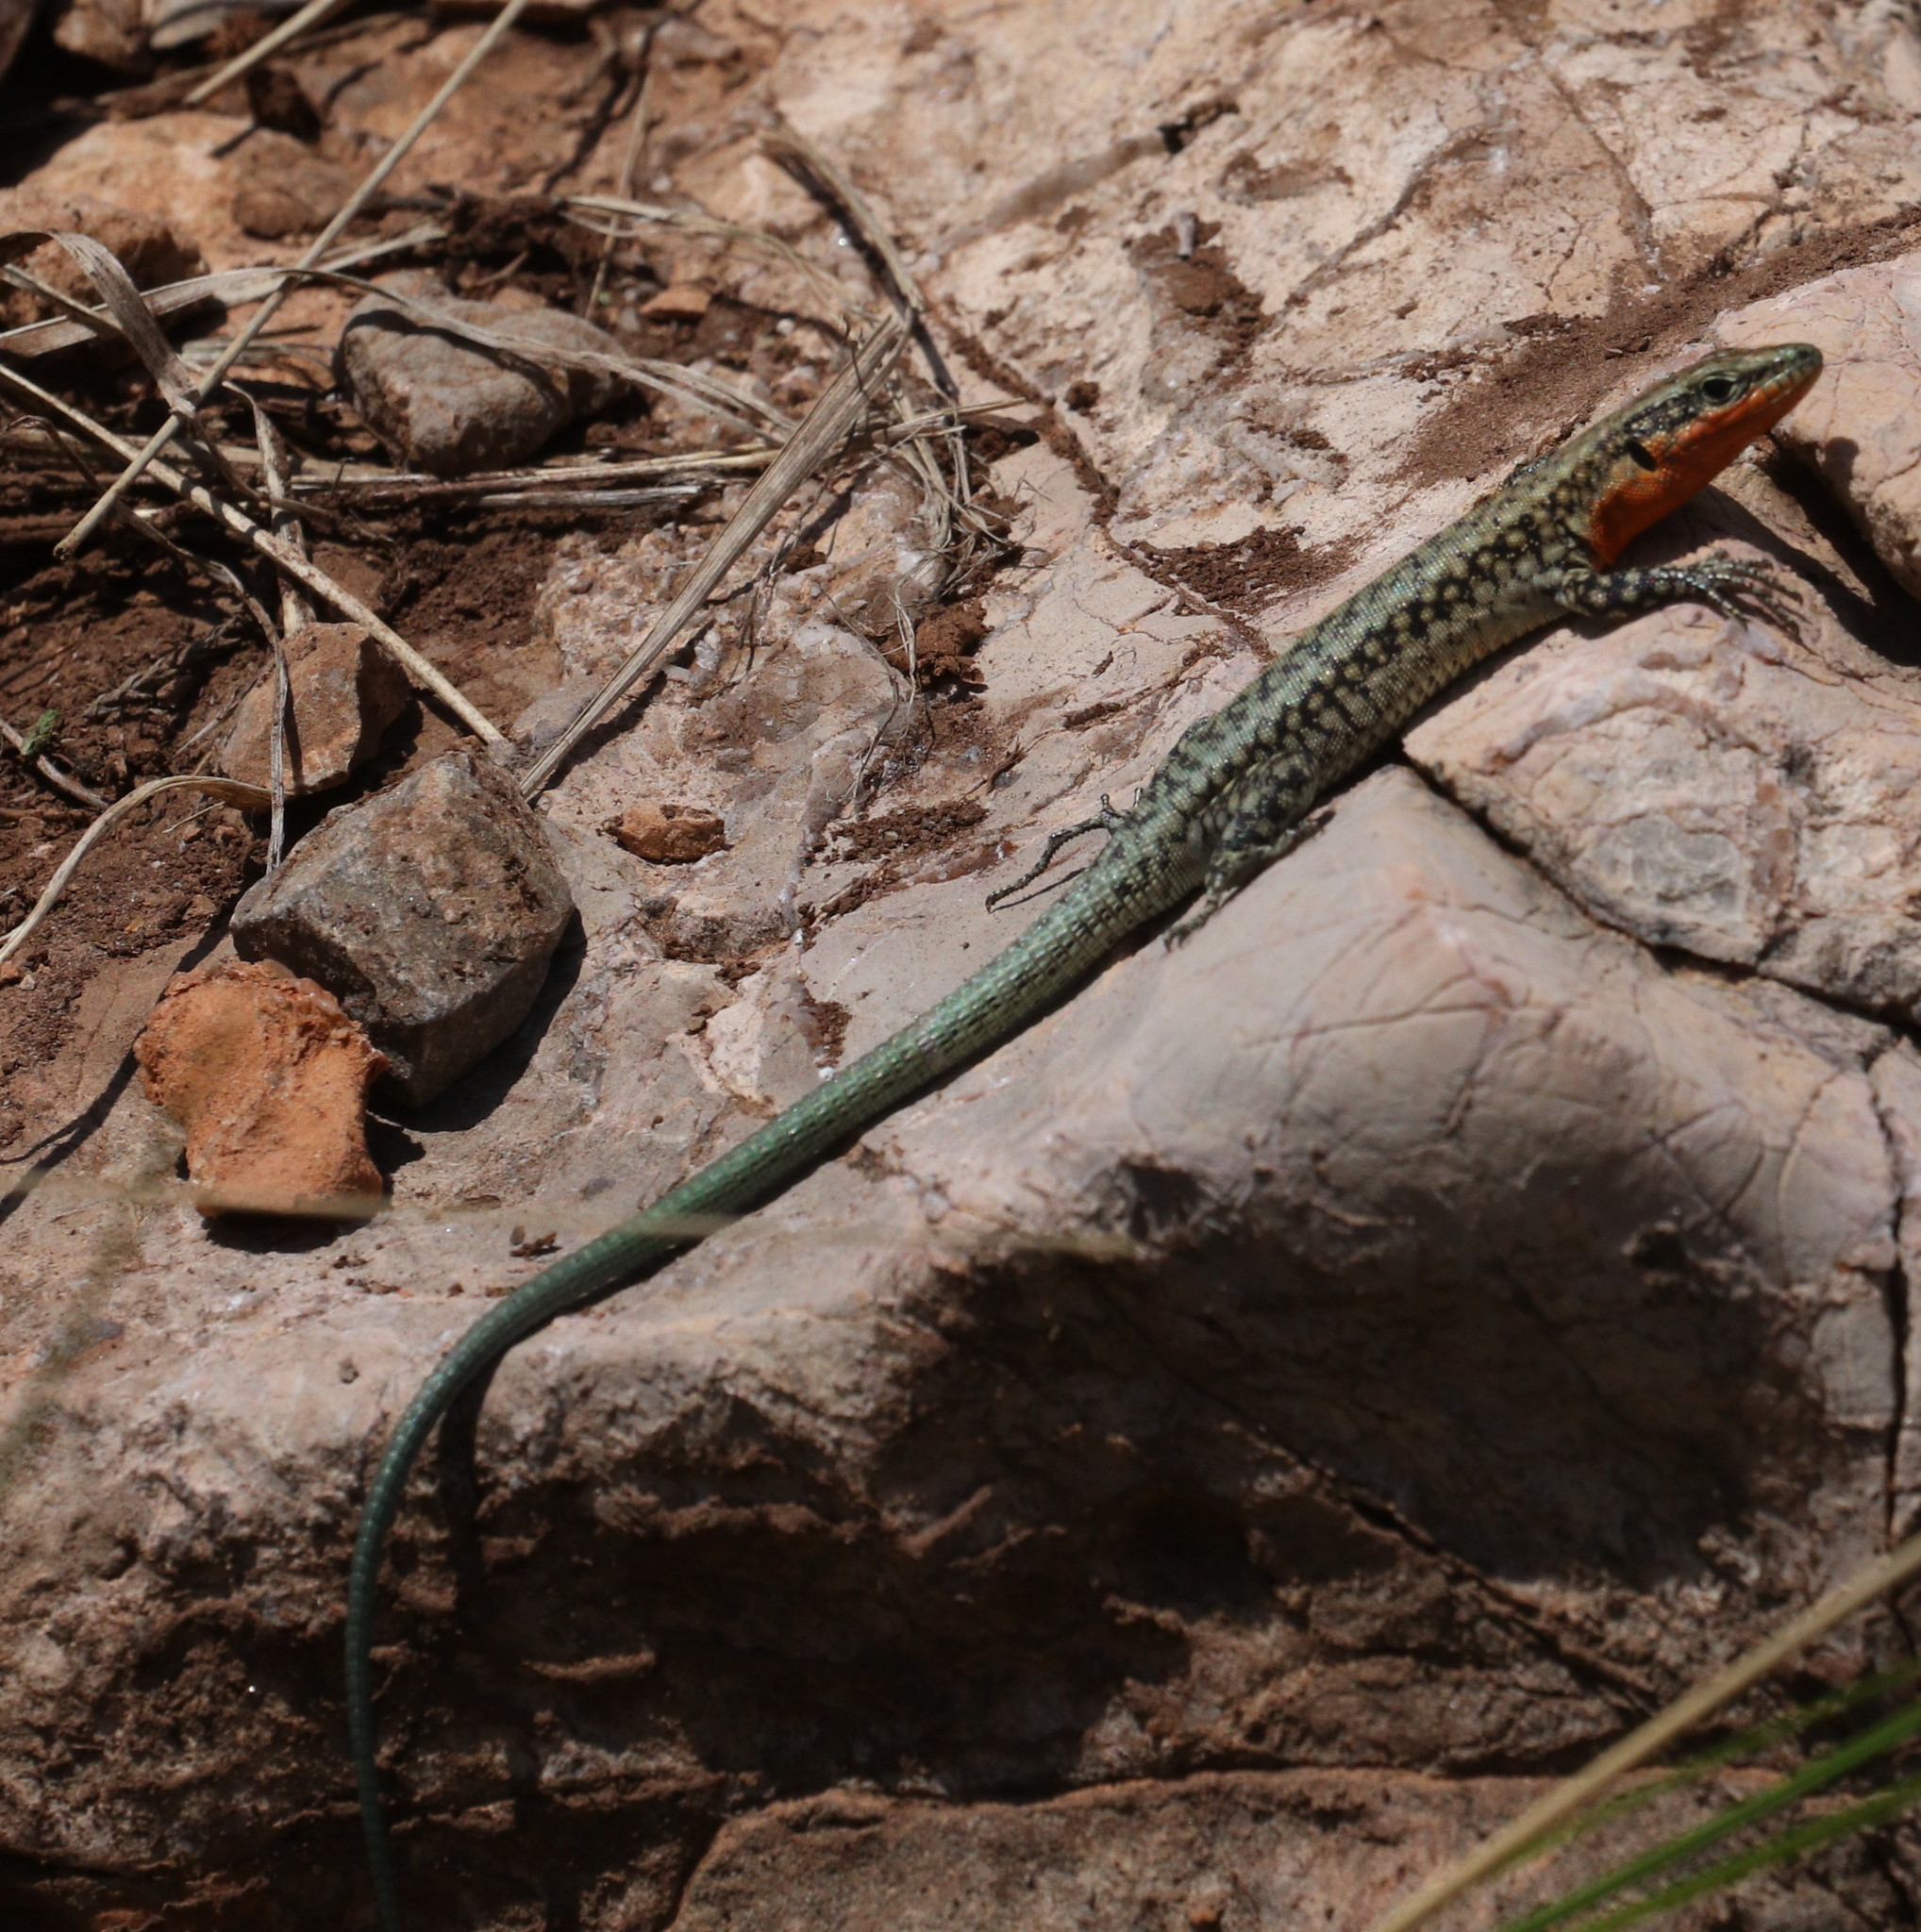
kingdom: Animalia
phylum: Chordata
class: Squamata
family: Lacertidae
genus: Anatololacerta
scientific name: Anatololacerta danfordi
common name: Danford's lizard
